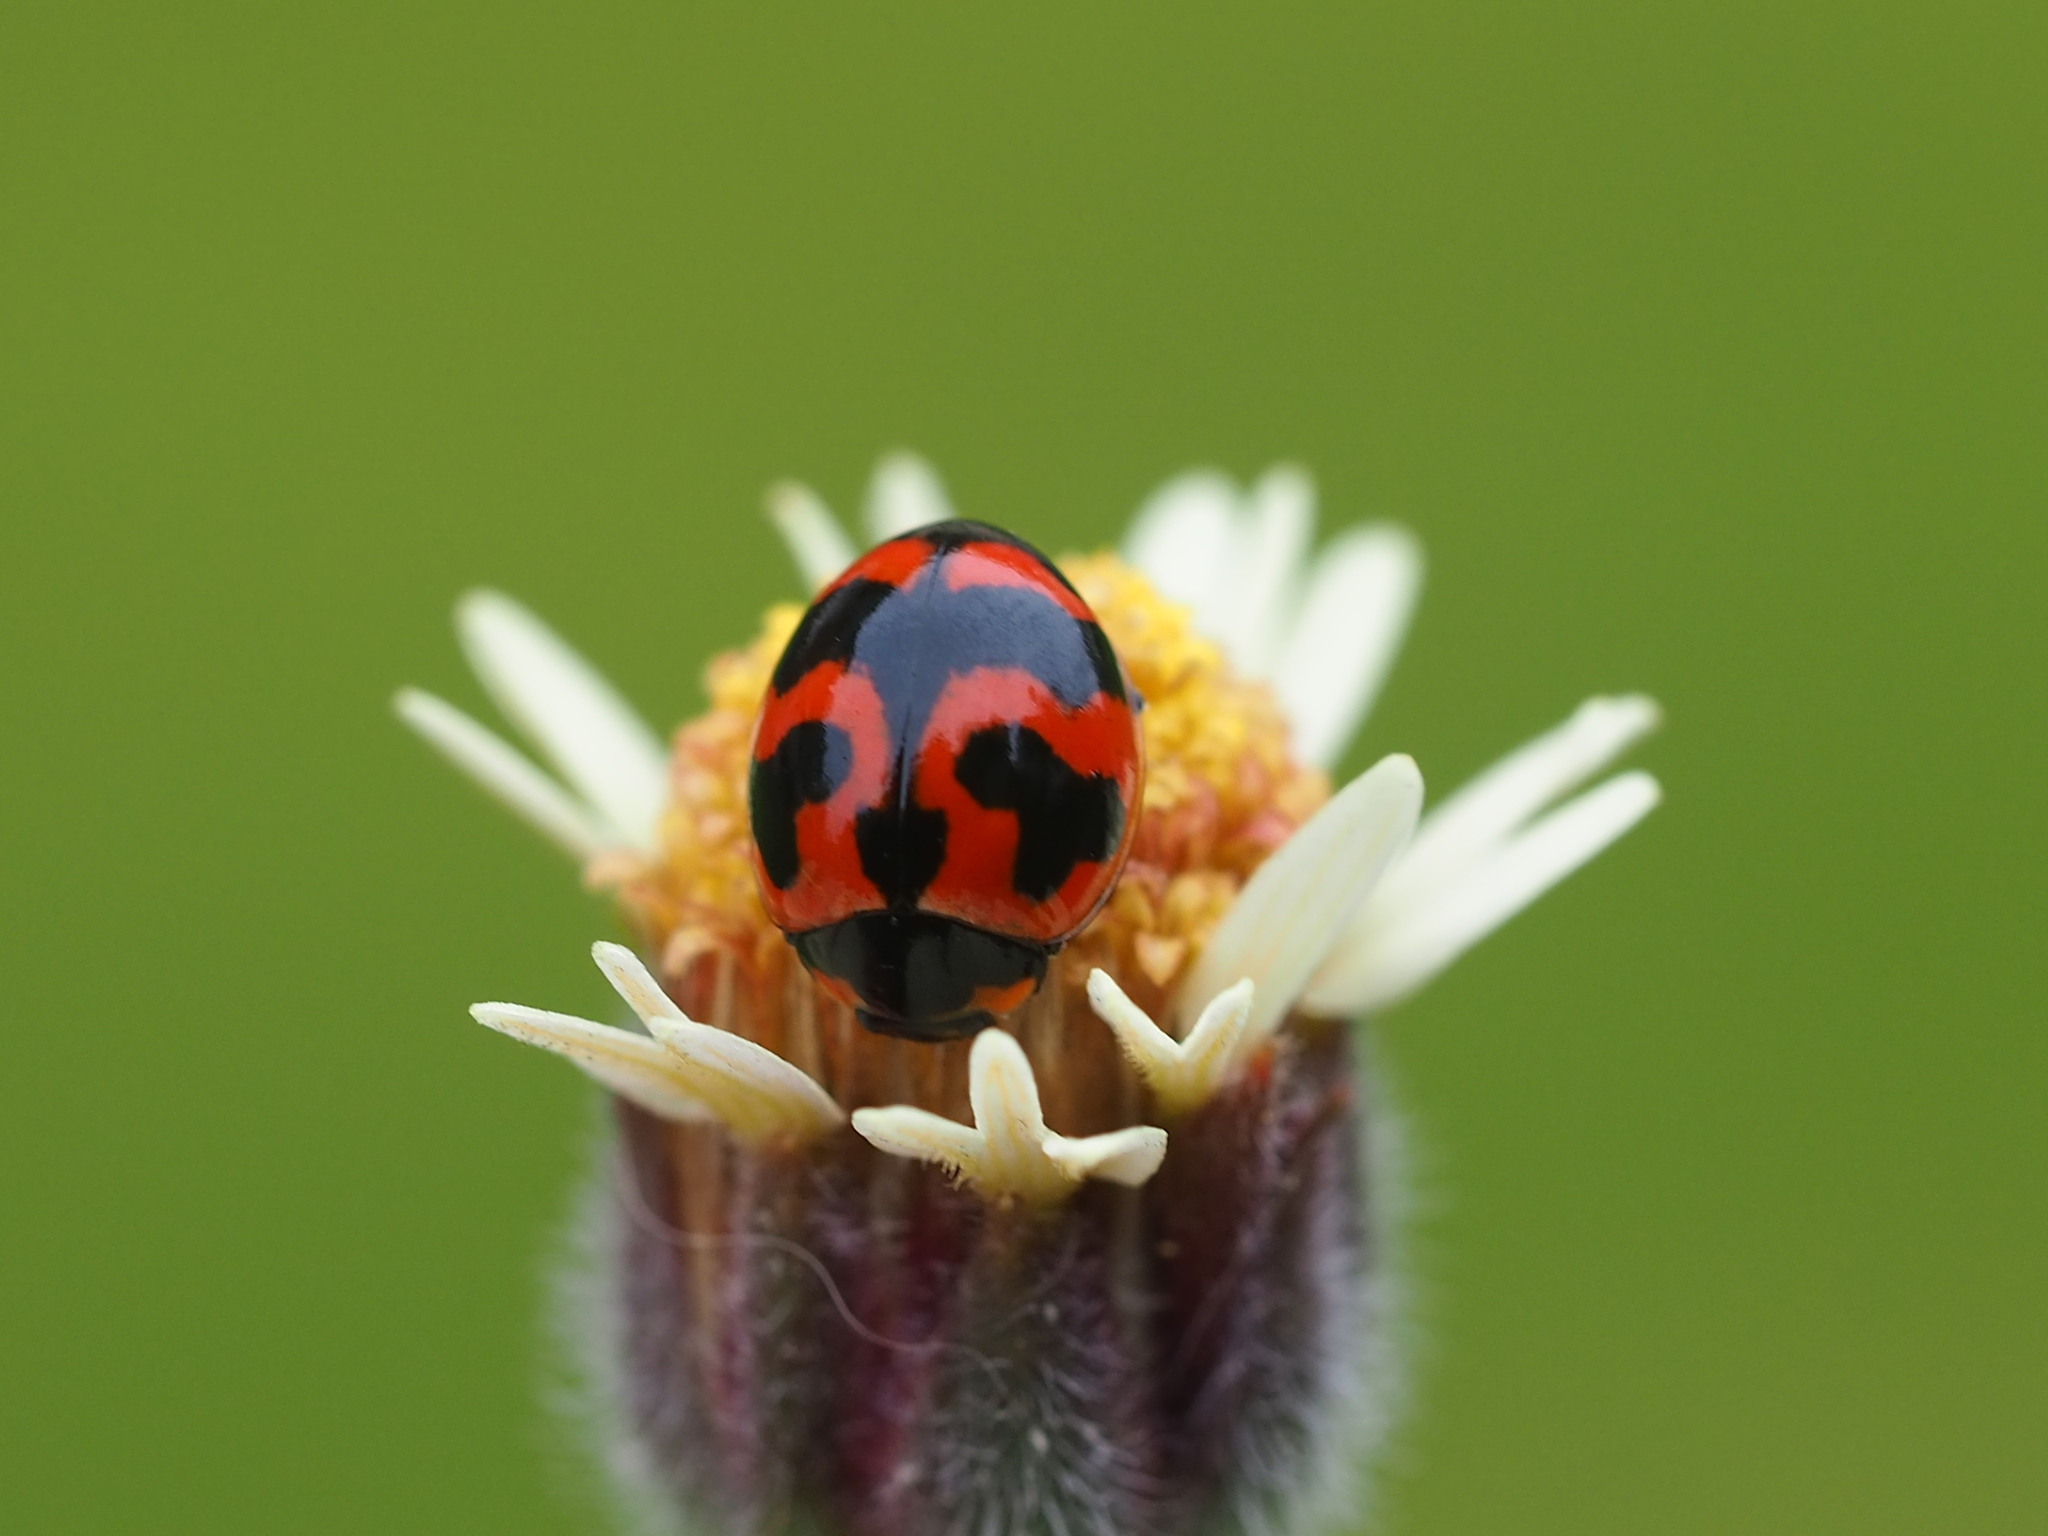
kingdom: Animalia
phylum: Arthropoda
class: Insecta
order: Coleoptera
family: Coccinellidae
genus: Coccinella
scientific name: Coccinella transversalis
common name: Transverse lady beetle
